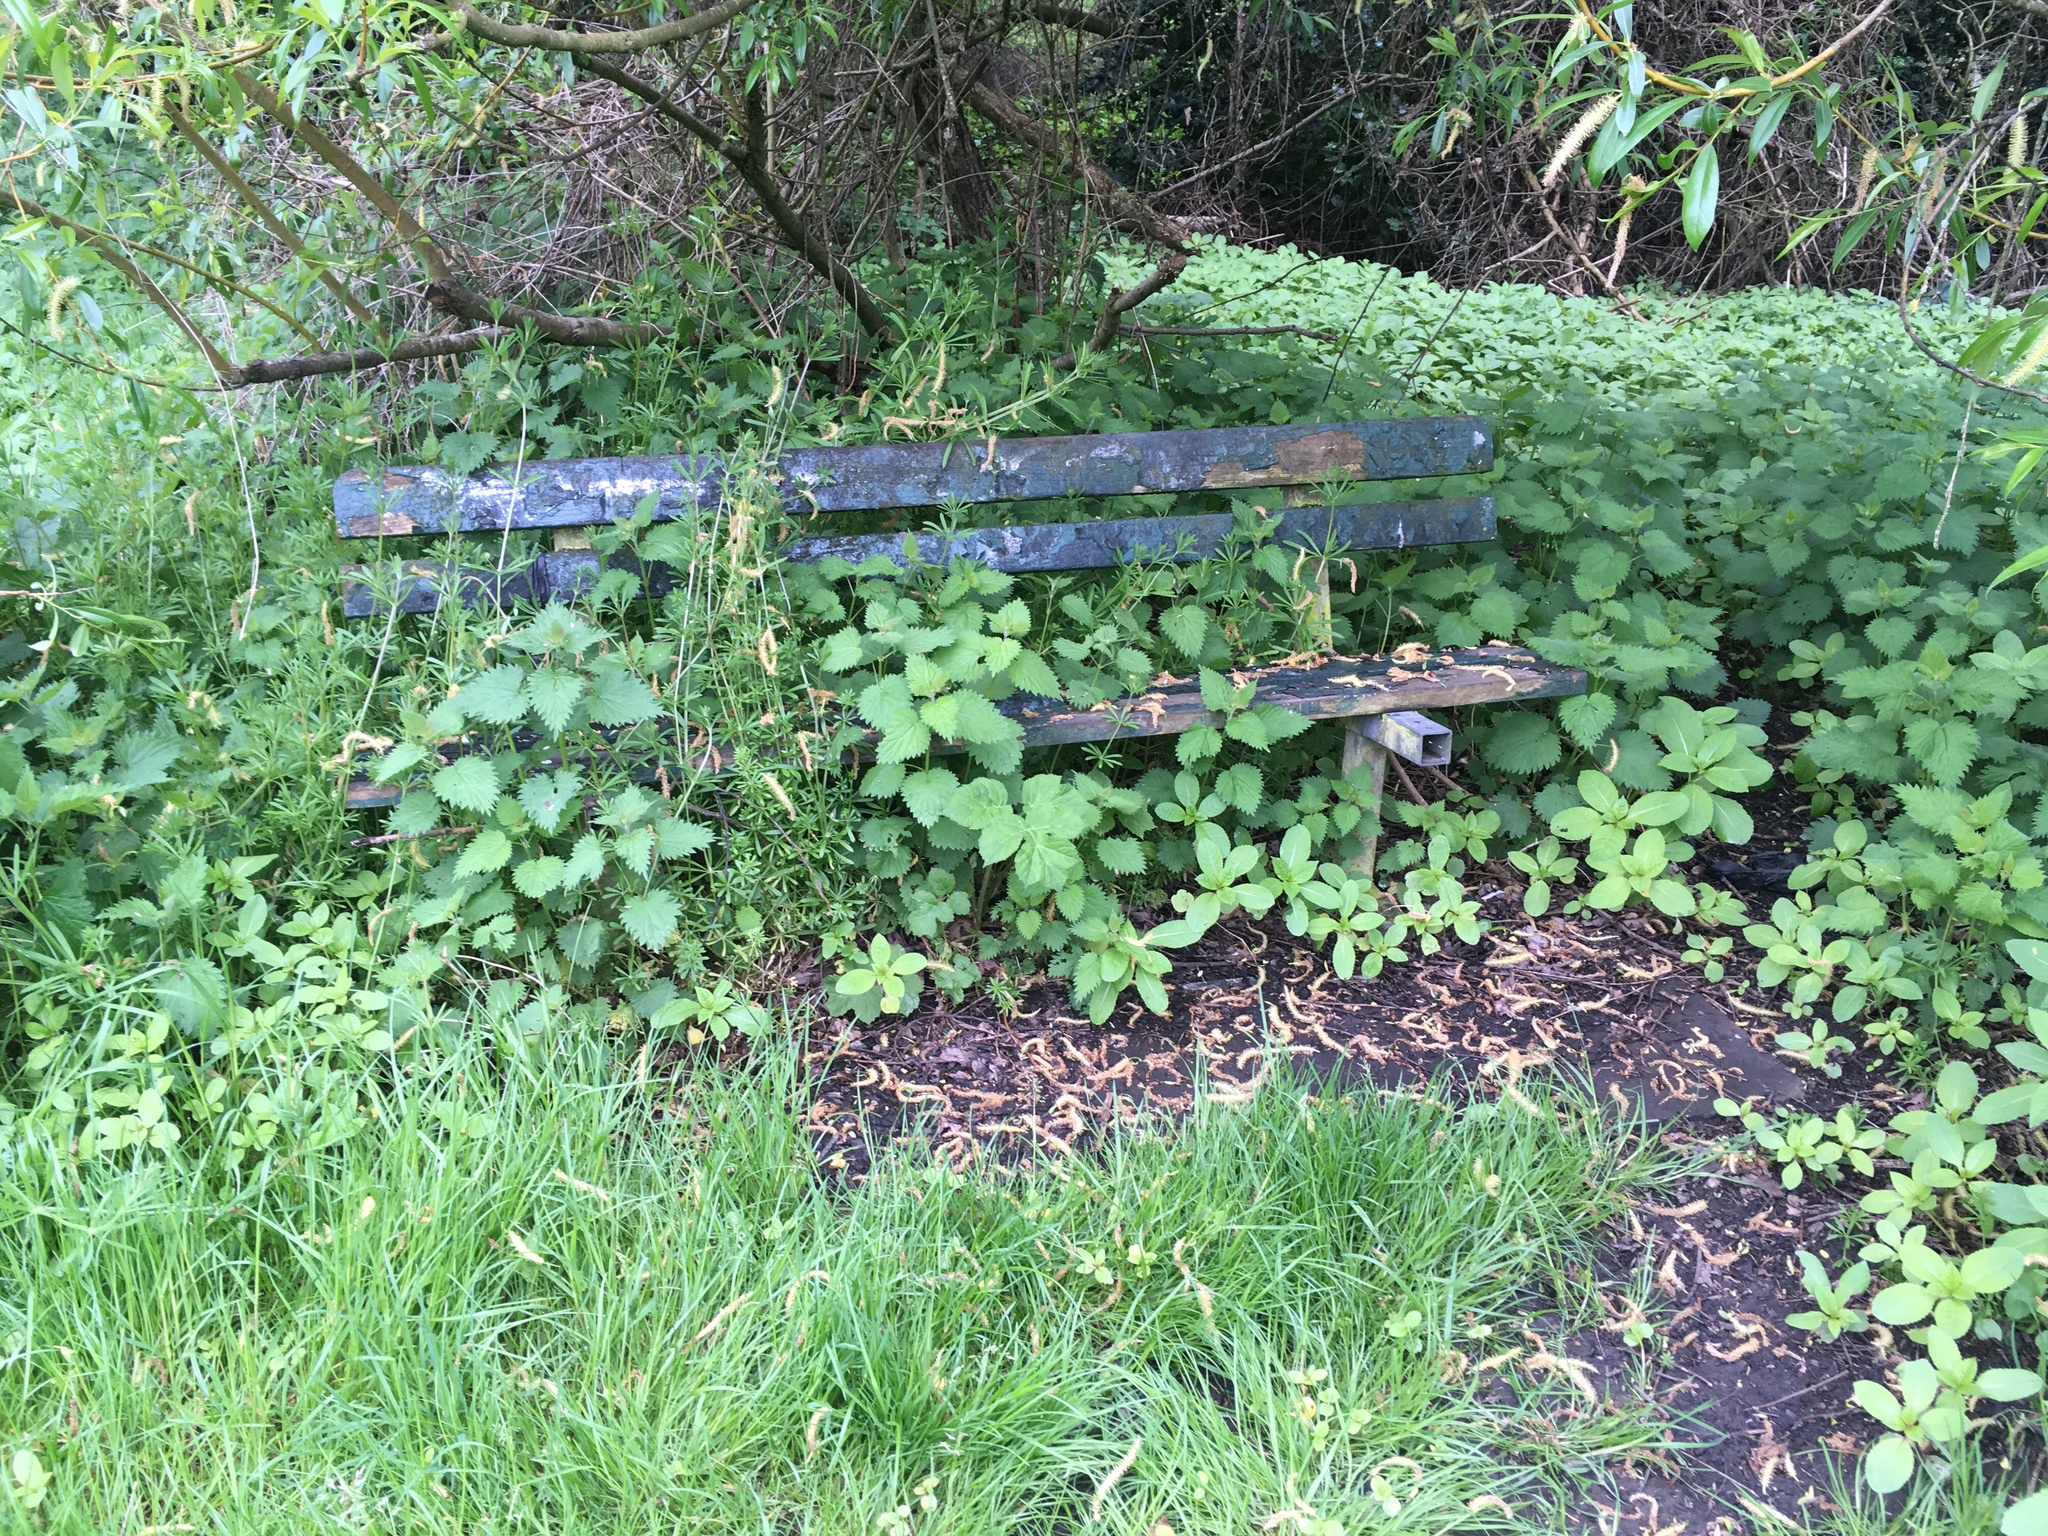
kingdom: Plantae
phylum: Tracheophyta
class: Magnoliopsida
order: Rosales
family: Urticaceae
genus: Urtica
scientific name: Urtica dioica
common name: Common nettle
